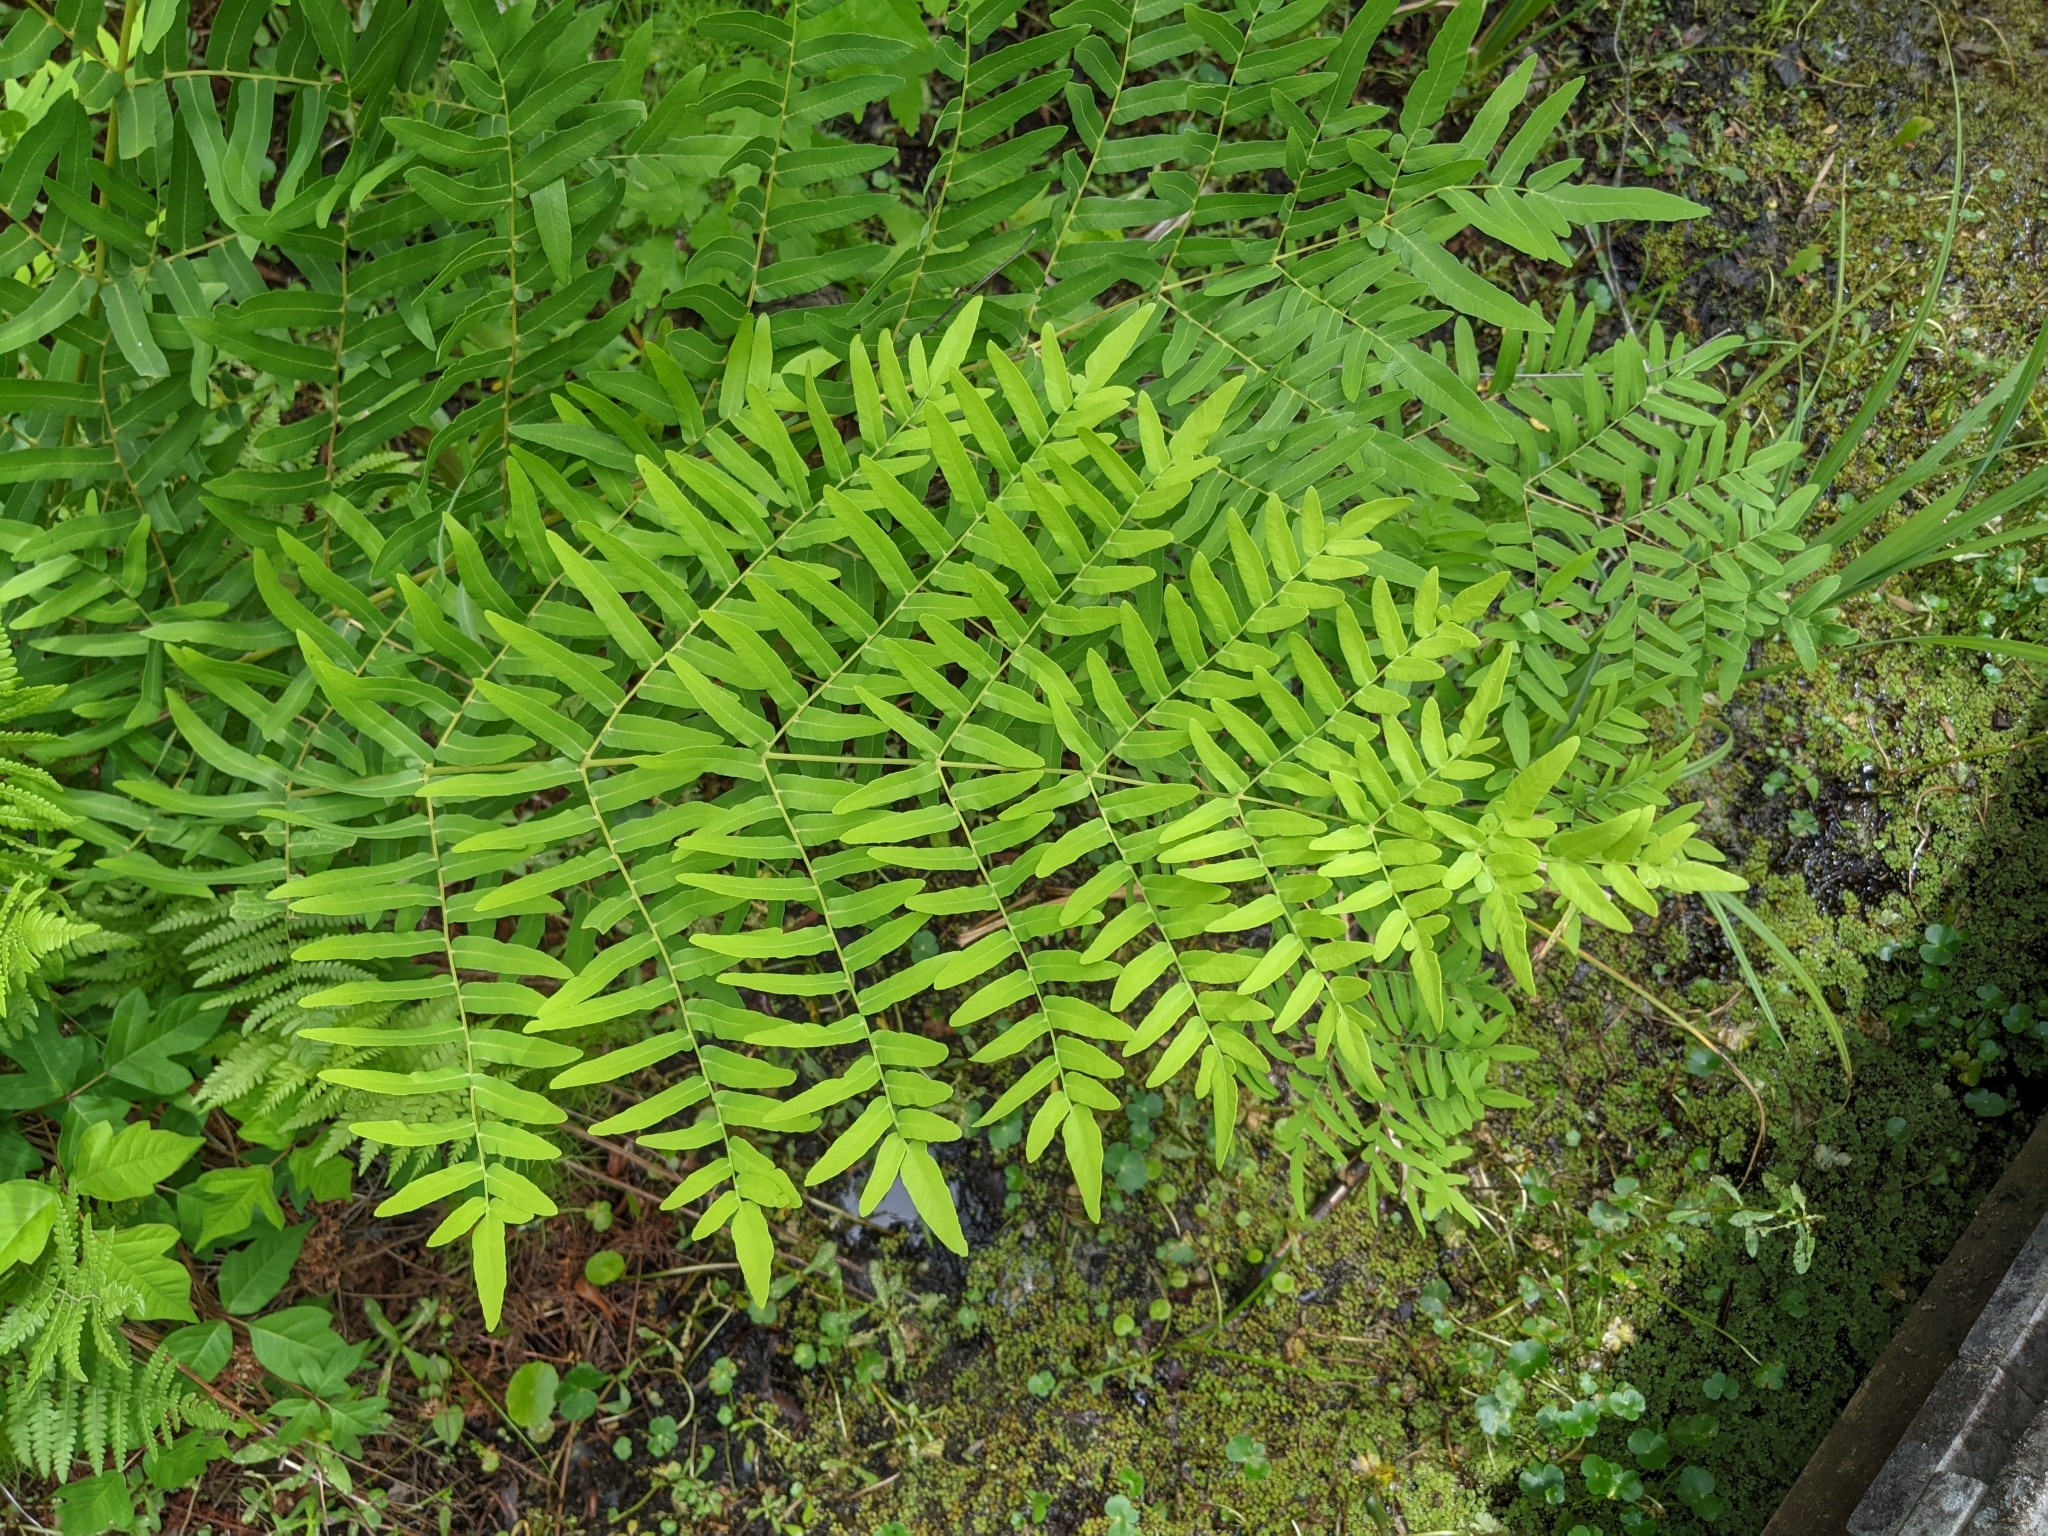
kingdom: Plantae
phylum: Tracheophyta
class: Polypodiopsida
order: Osmundales
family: Osmundaceae
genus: Osmunda
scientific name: Osmunda spectabilis
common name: American royal fern
